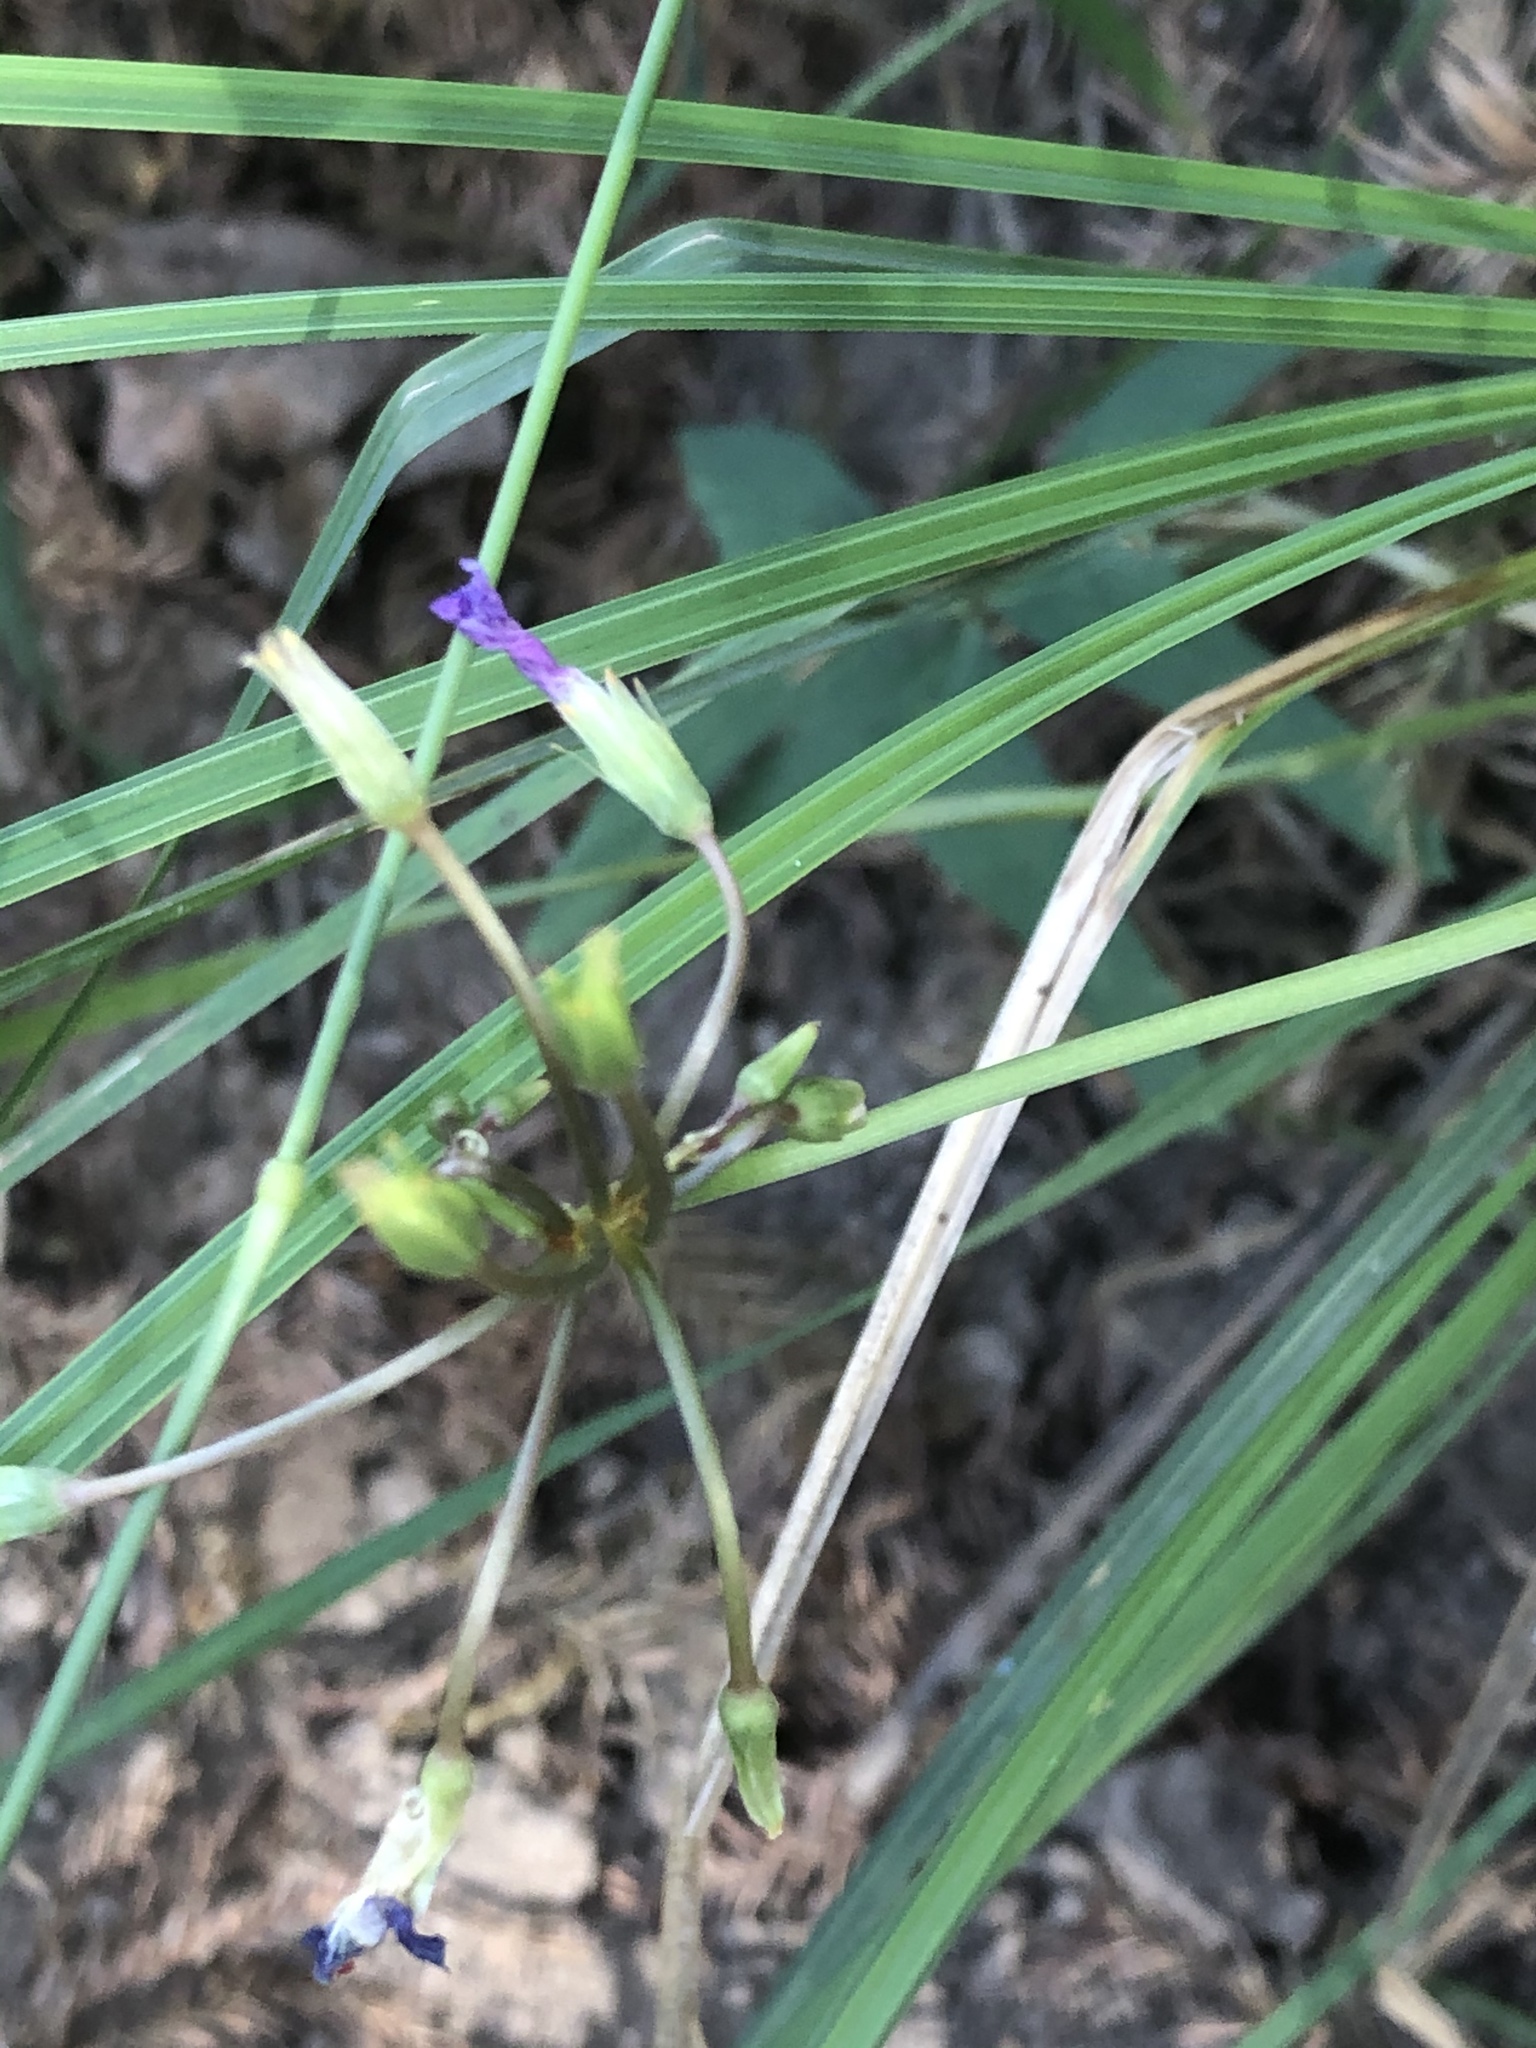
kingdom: Plantae
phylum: Tracheophyta
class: Magnoliopsida
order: Oxalidales
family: Oxalidaceae
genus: Oxalis
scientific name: Oxalis drummondii
